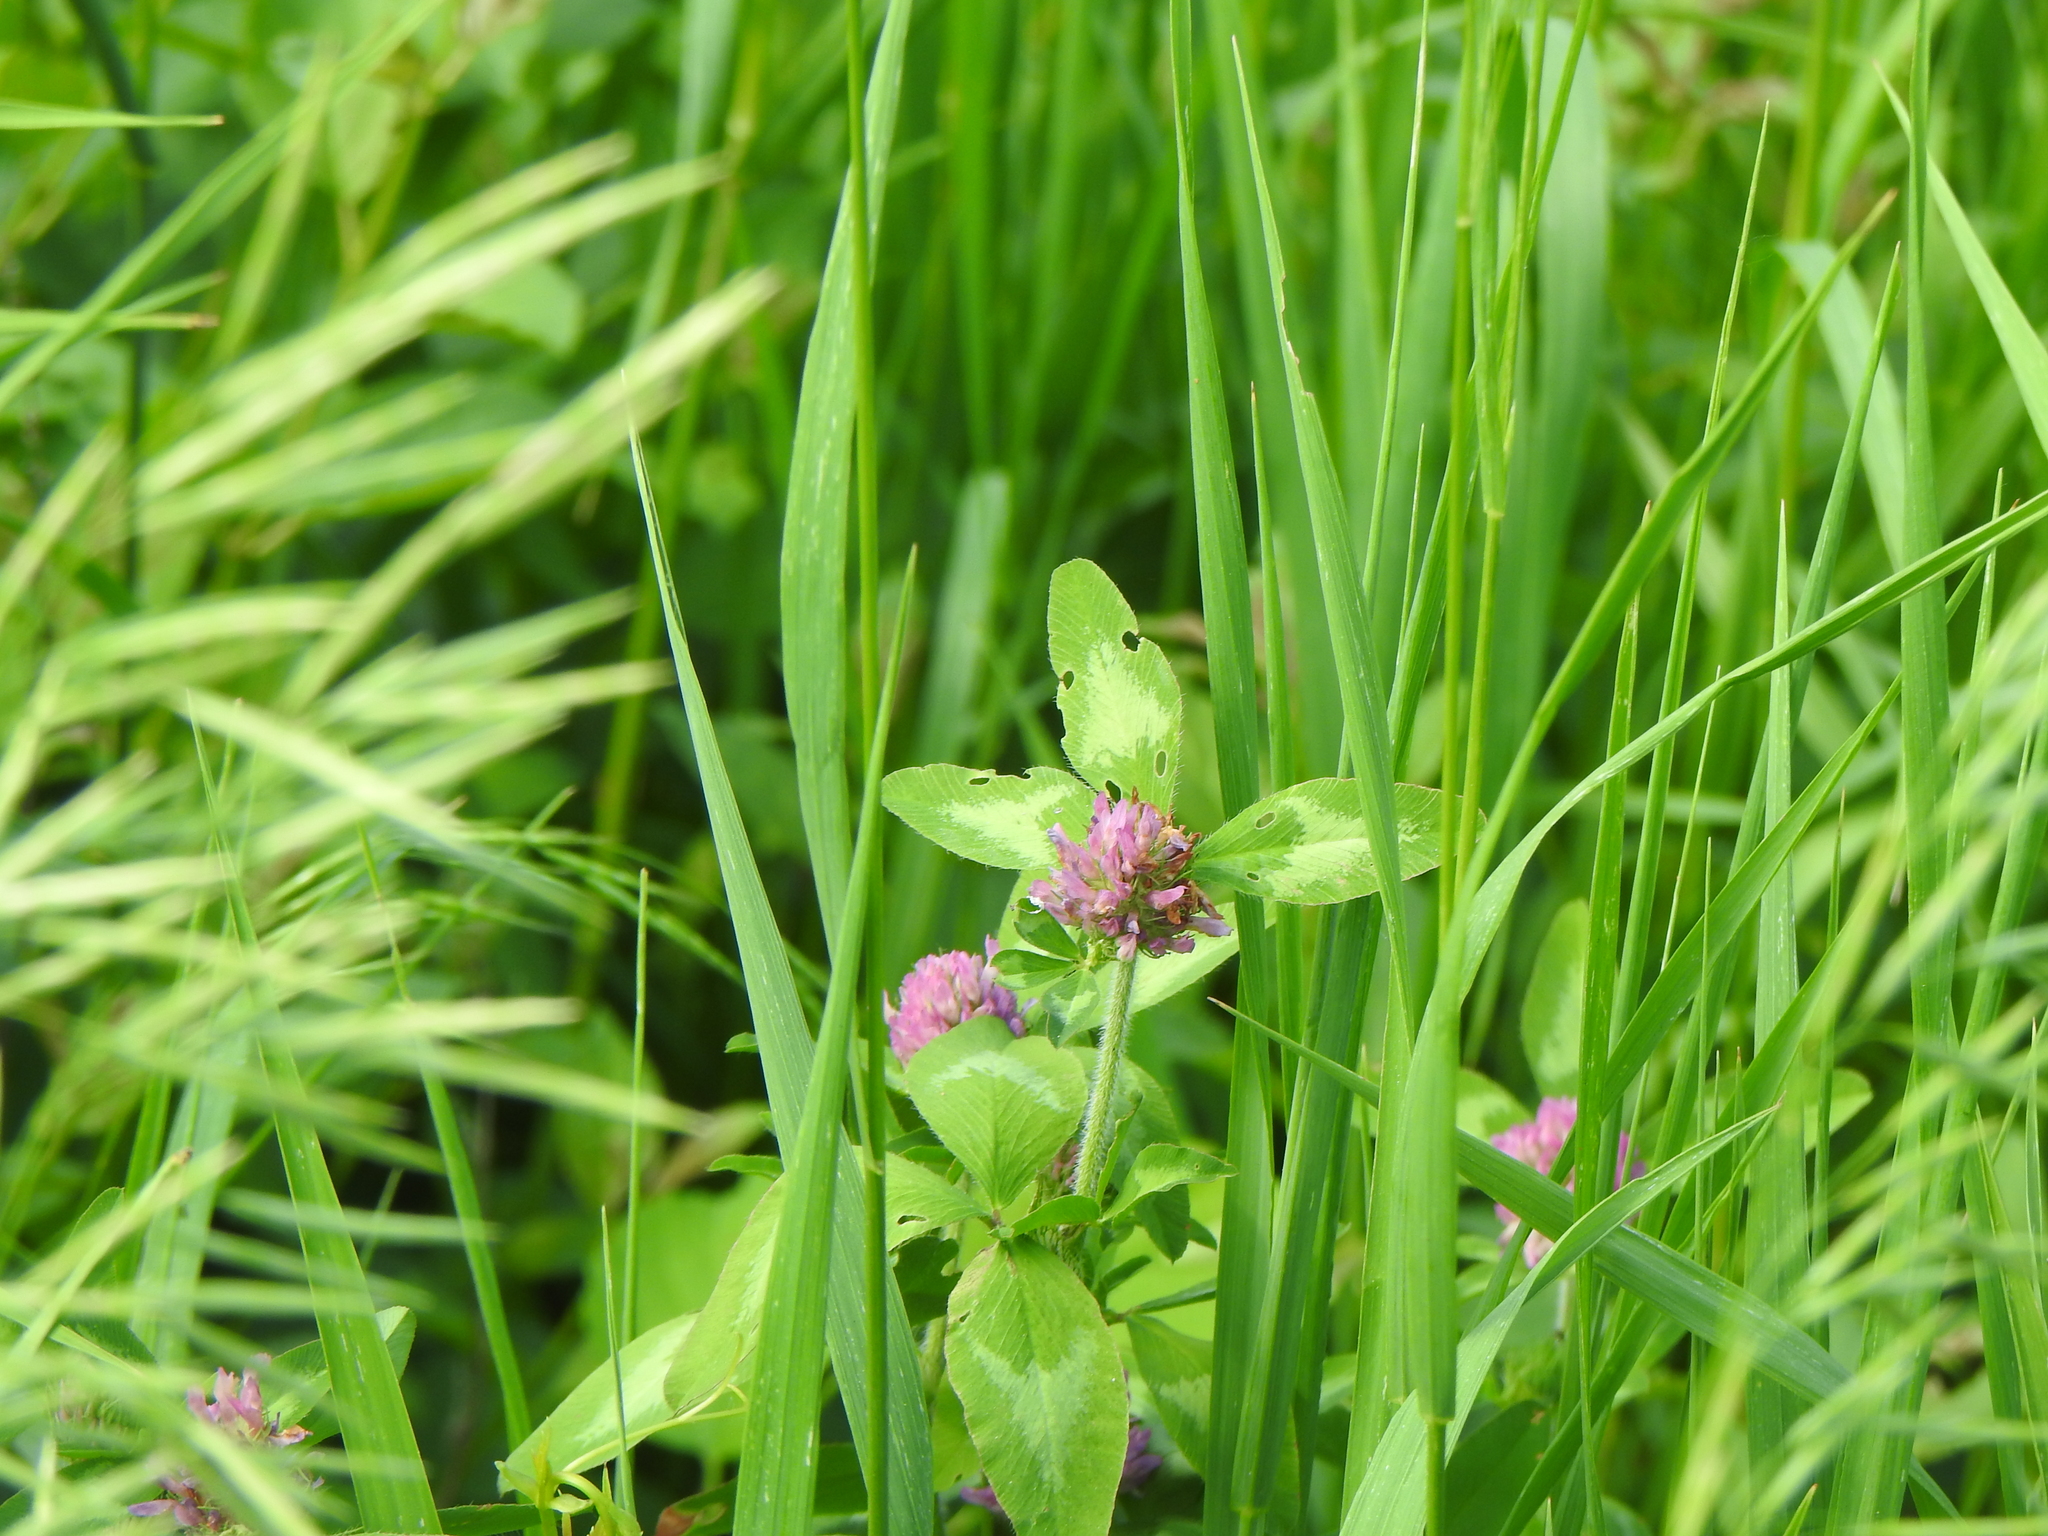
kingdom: Plantae
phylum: Tracheophyta
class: Magnoliopsida
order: Fabales
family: Fabaceae
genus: Trifolium
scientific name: Trifolium pratense
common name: Red clover
